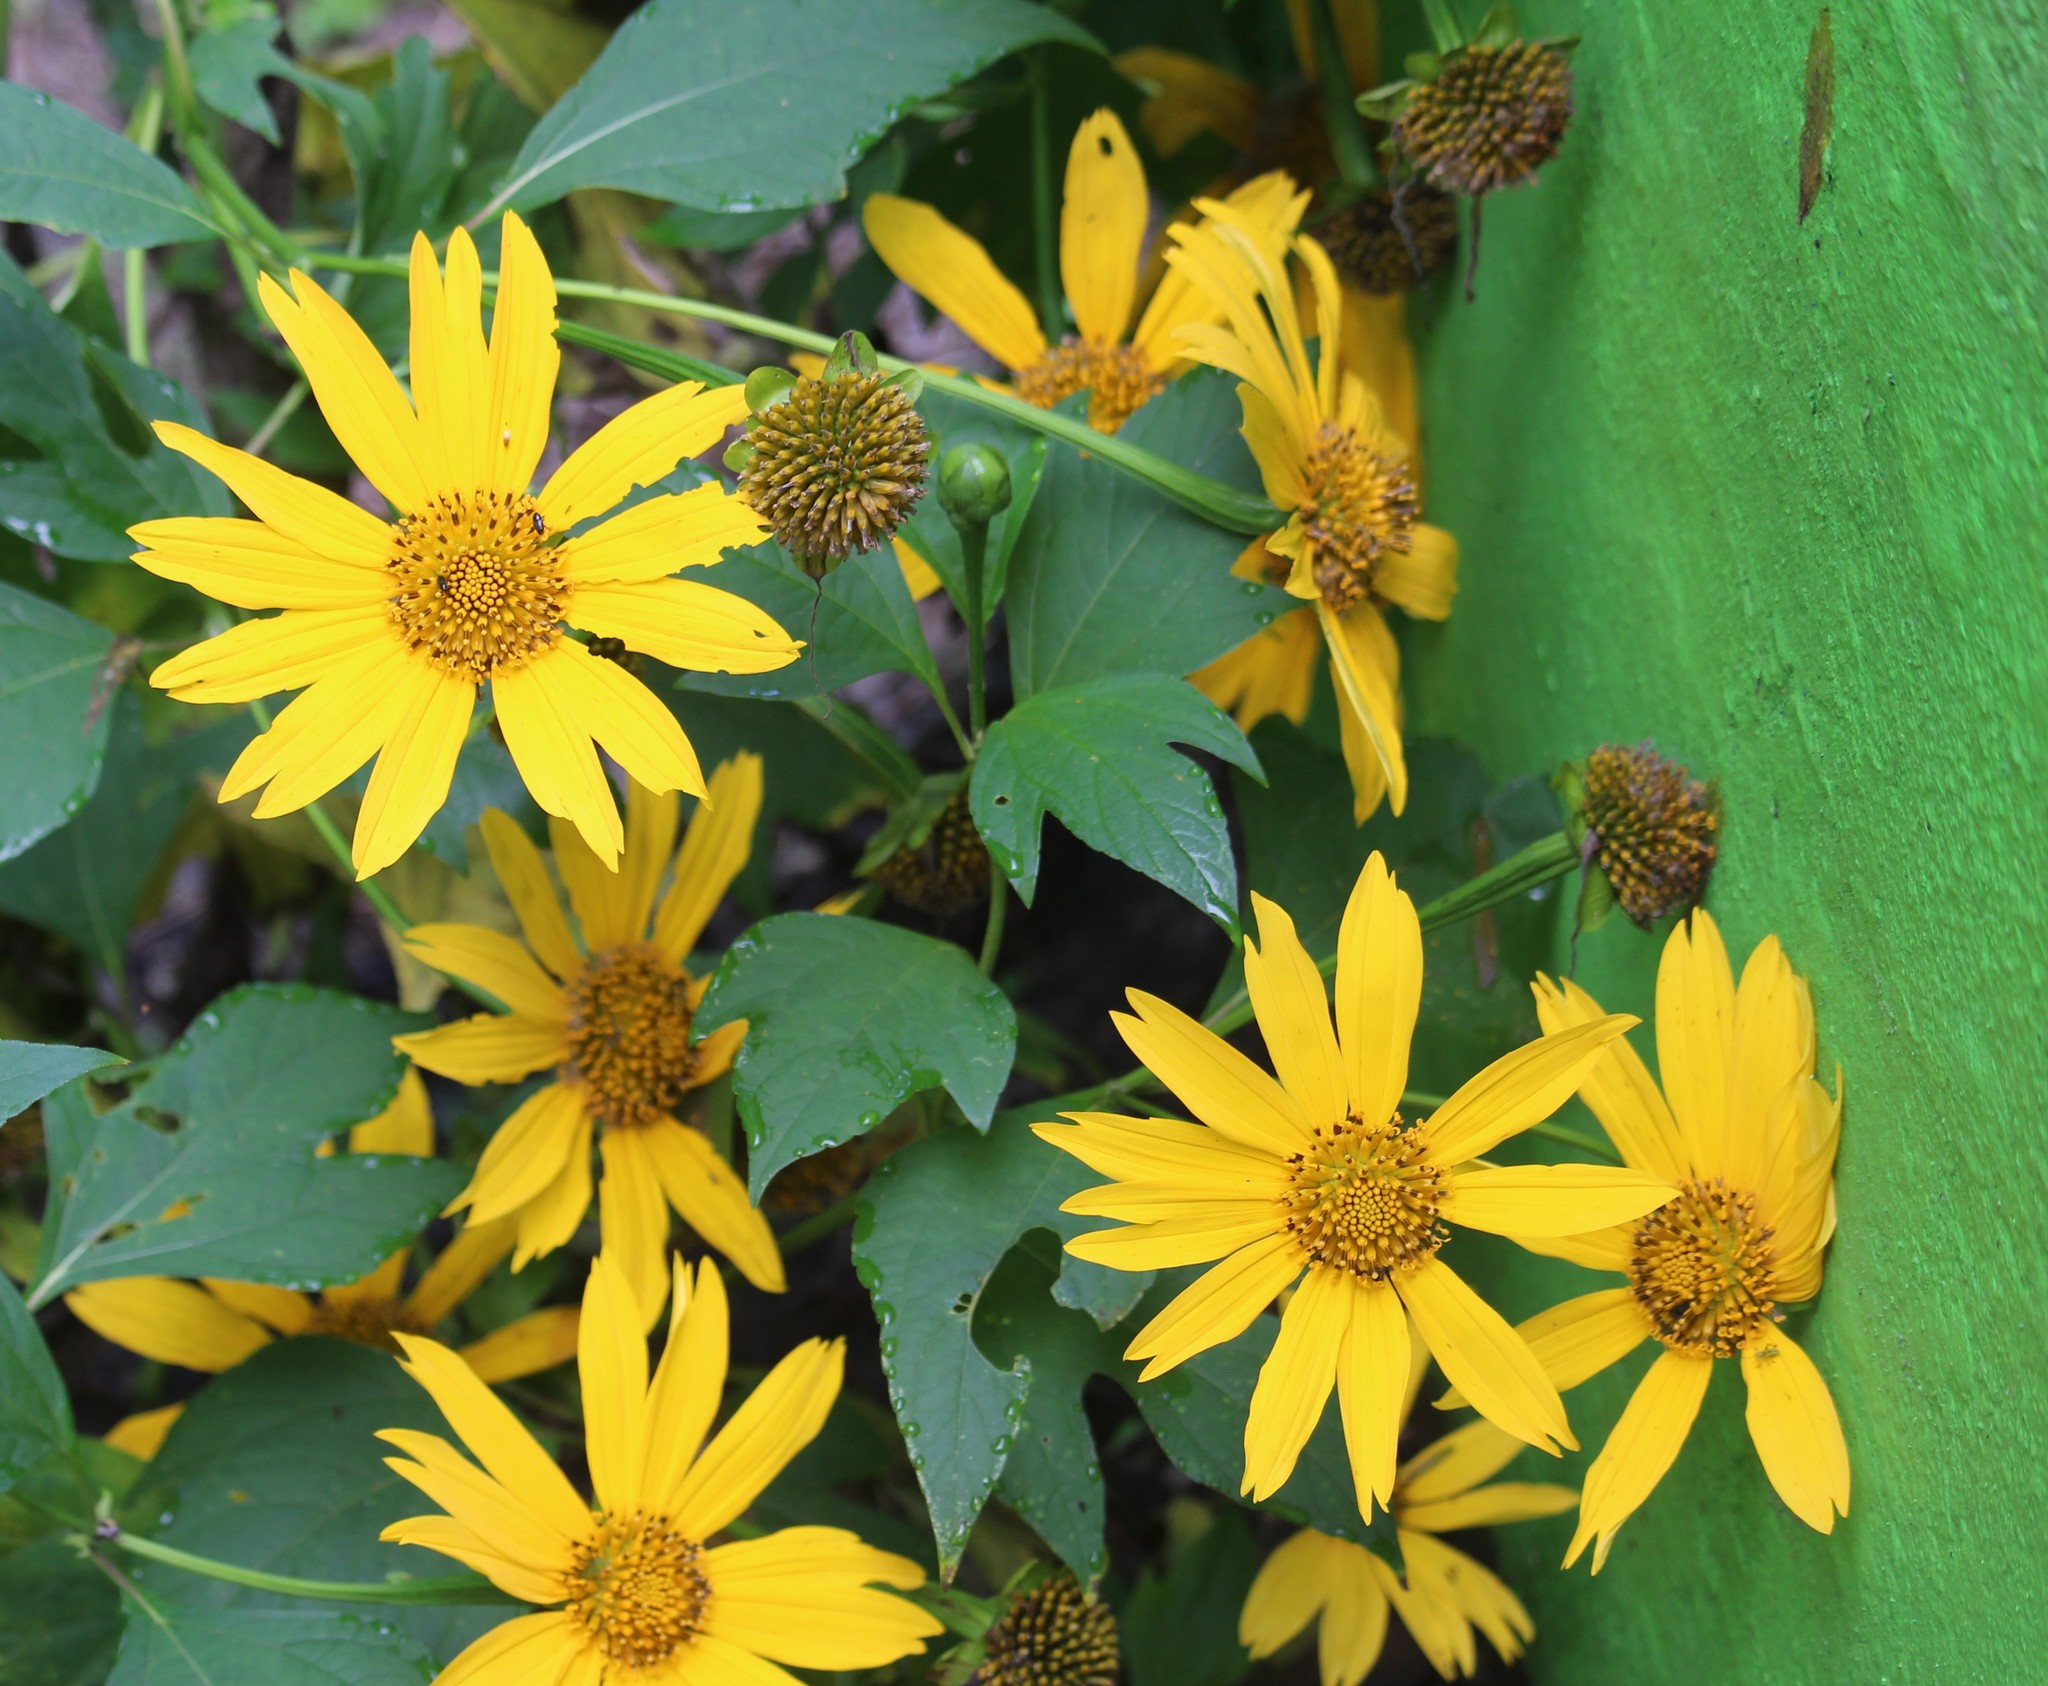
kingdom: Plantae
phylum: Tracheophyta
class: Magnoliopsida
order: Asterales
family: Asteraceae
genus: Tithonia
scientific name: Tithonia diversifolia
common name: Tree marigold
